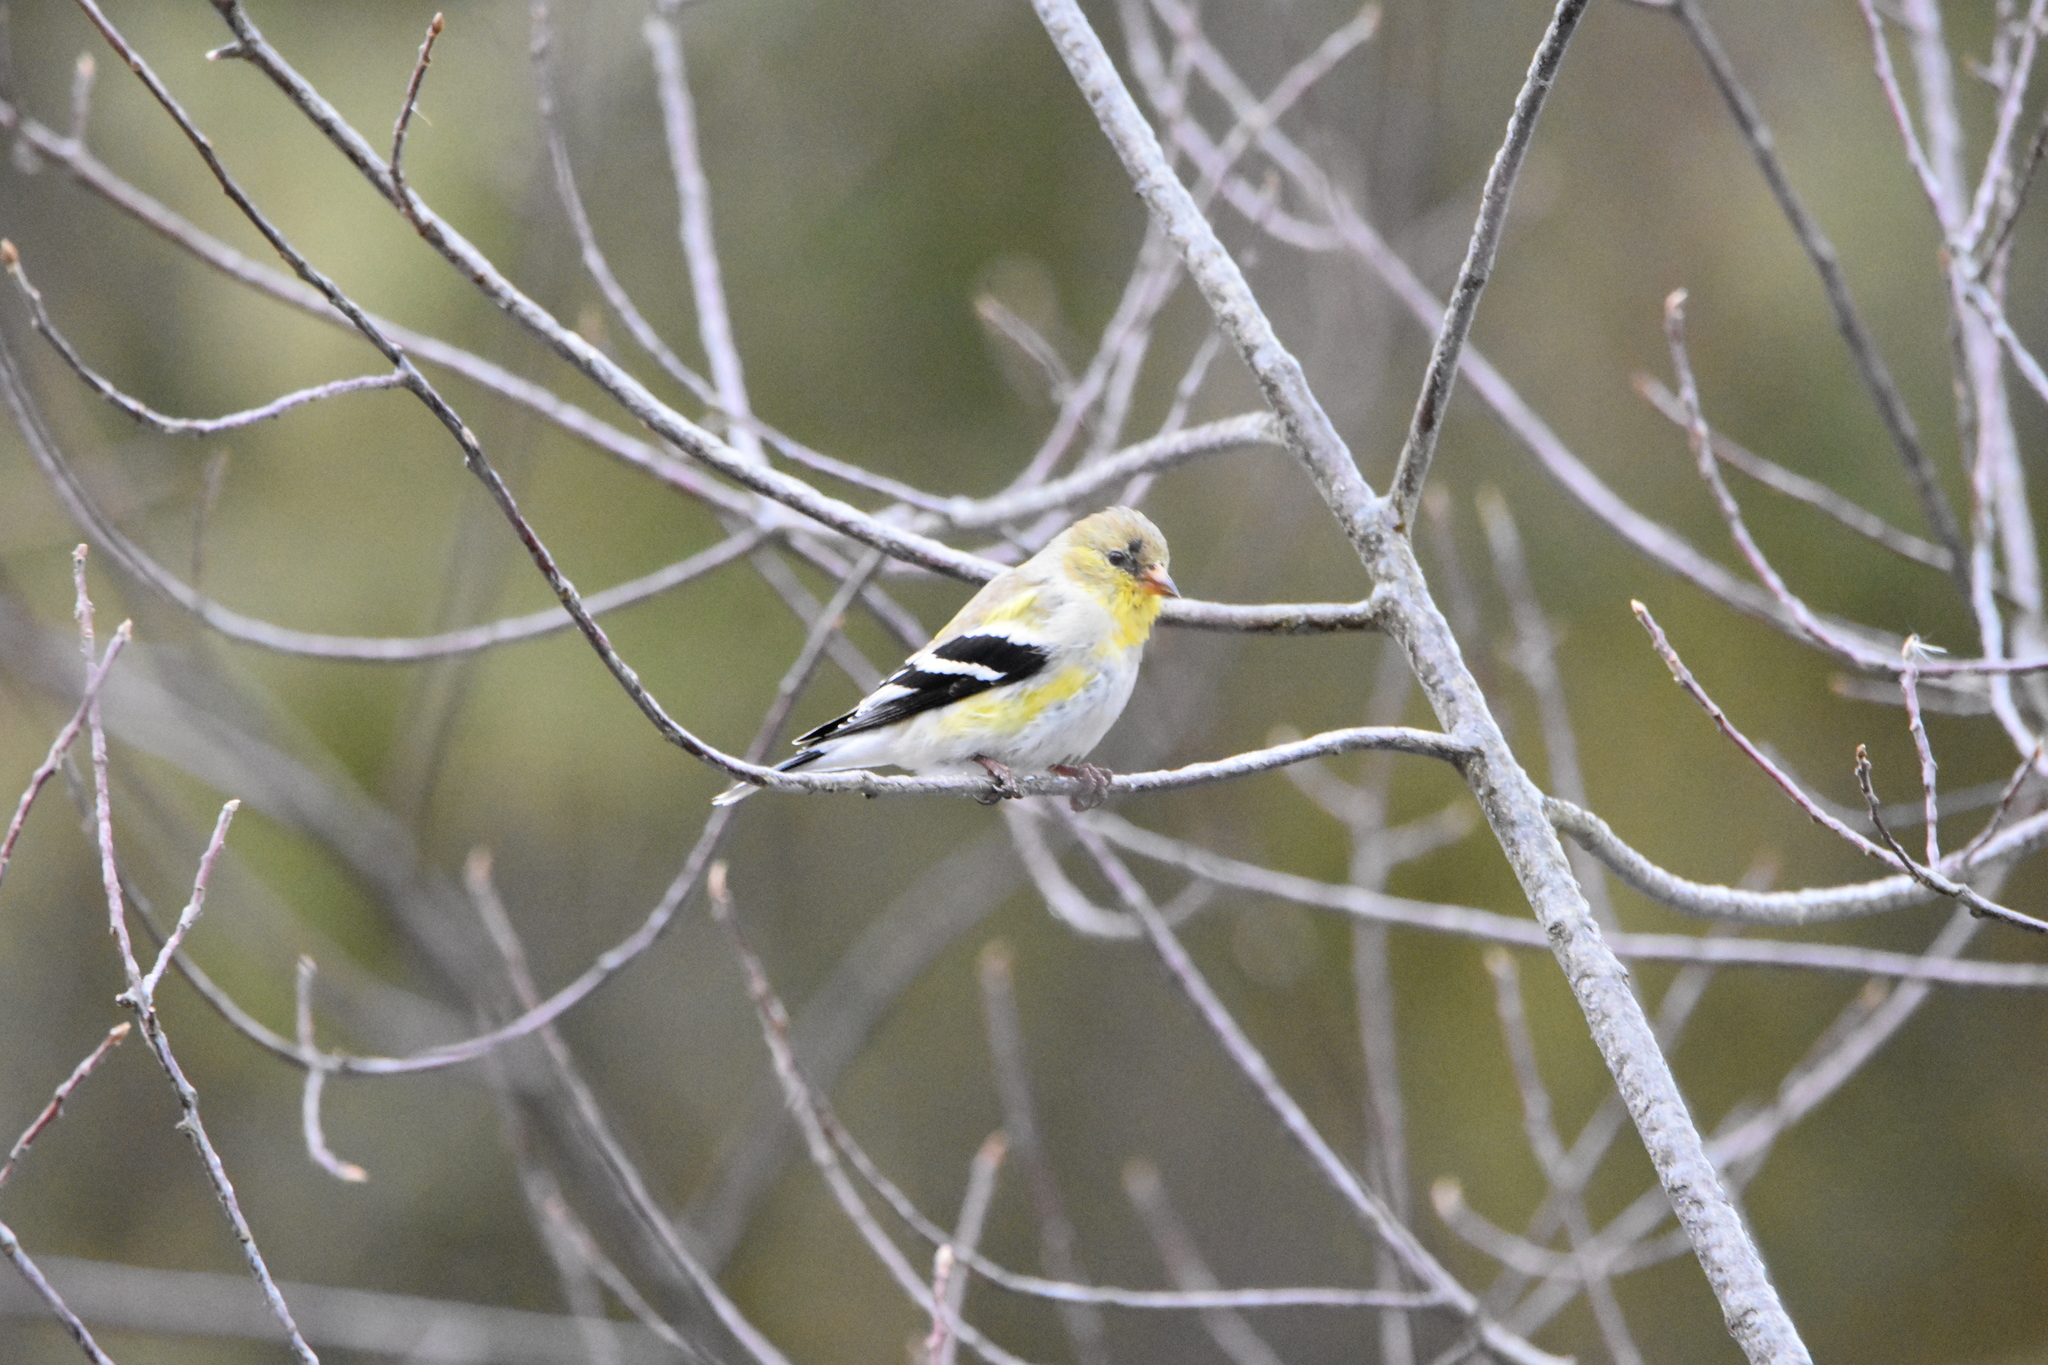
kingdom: Animalia
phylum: Chordata
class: Aves
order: Passeriformes
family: Fringillidae
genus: Spinus
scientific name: Spinus tristis
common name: American goldfinch
